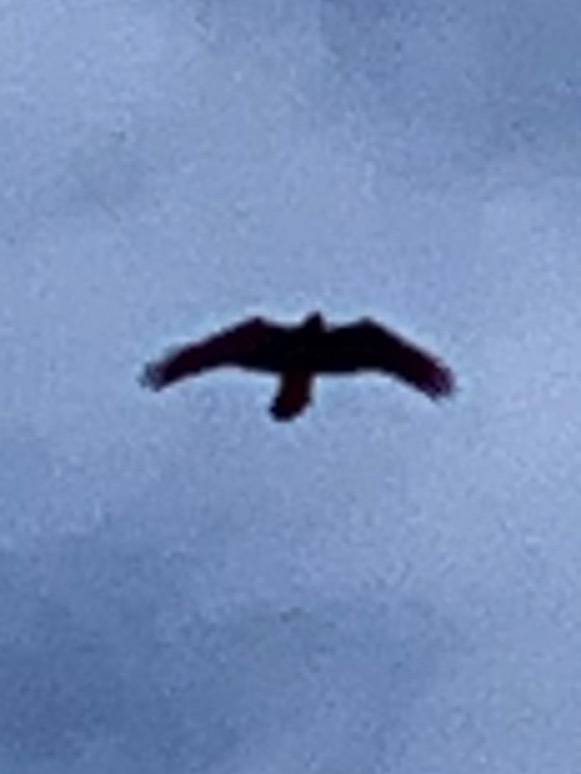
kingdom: Animalia
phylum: Chordata
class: Aves
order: Passeriformes
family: Corvidae
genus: Corvus
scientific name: Corvus corax
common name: Common raven
